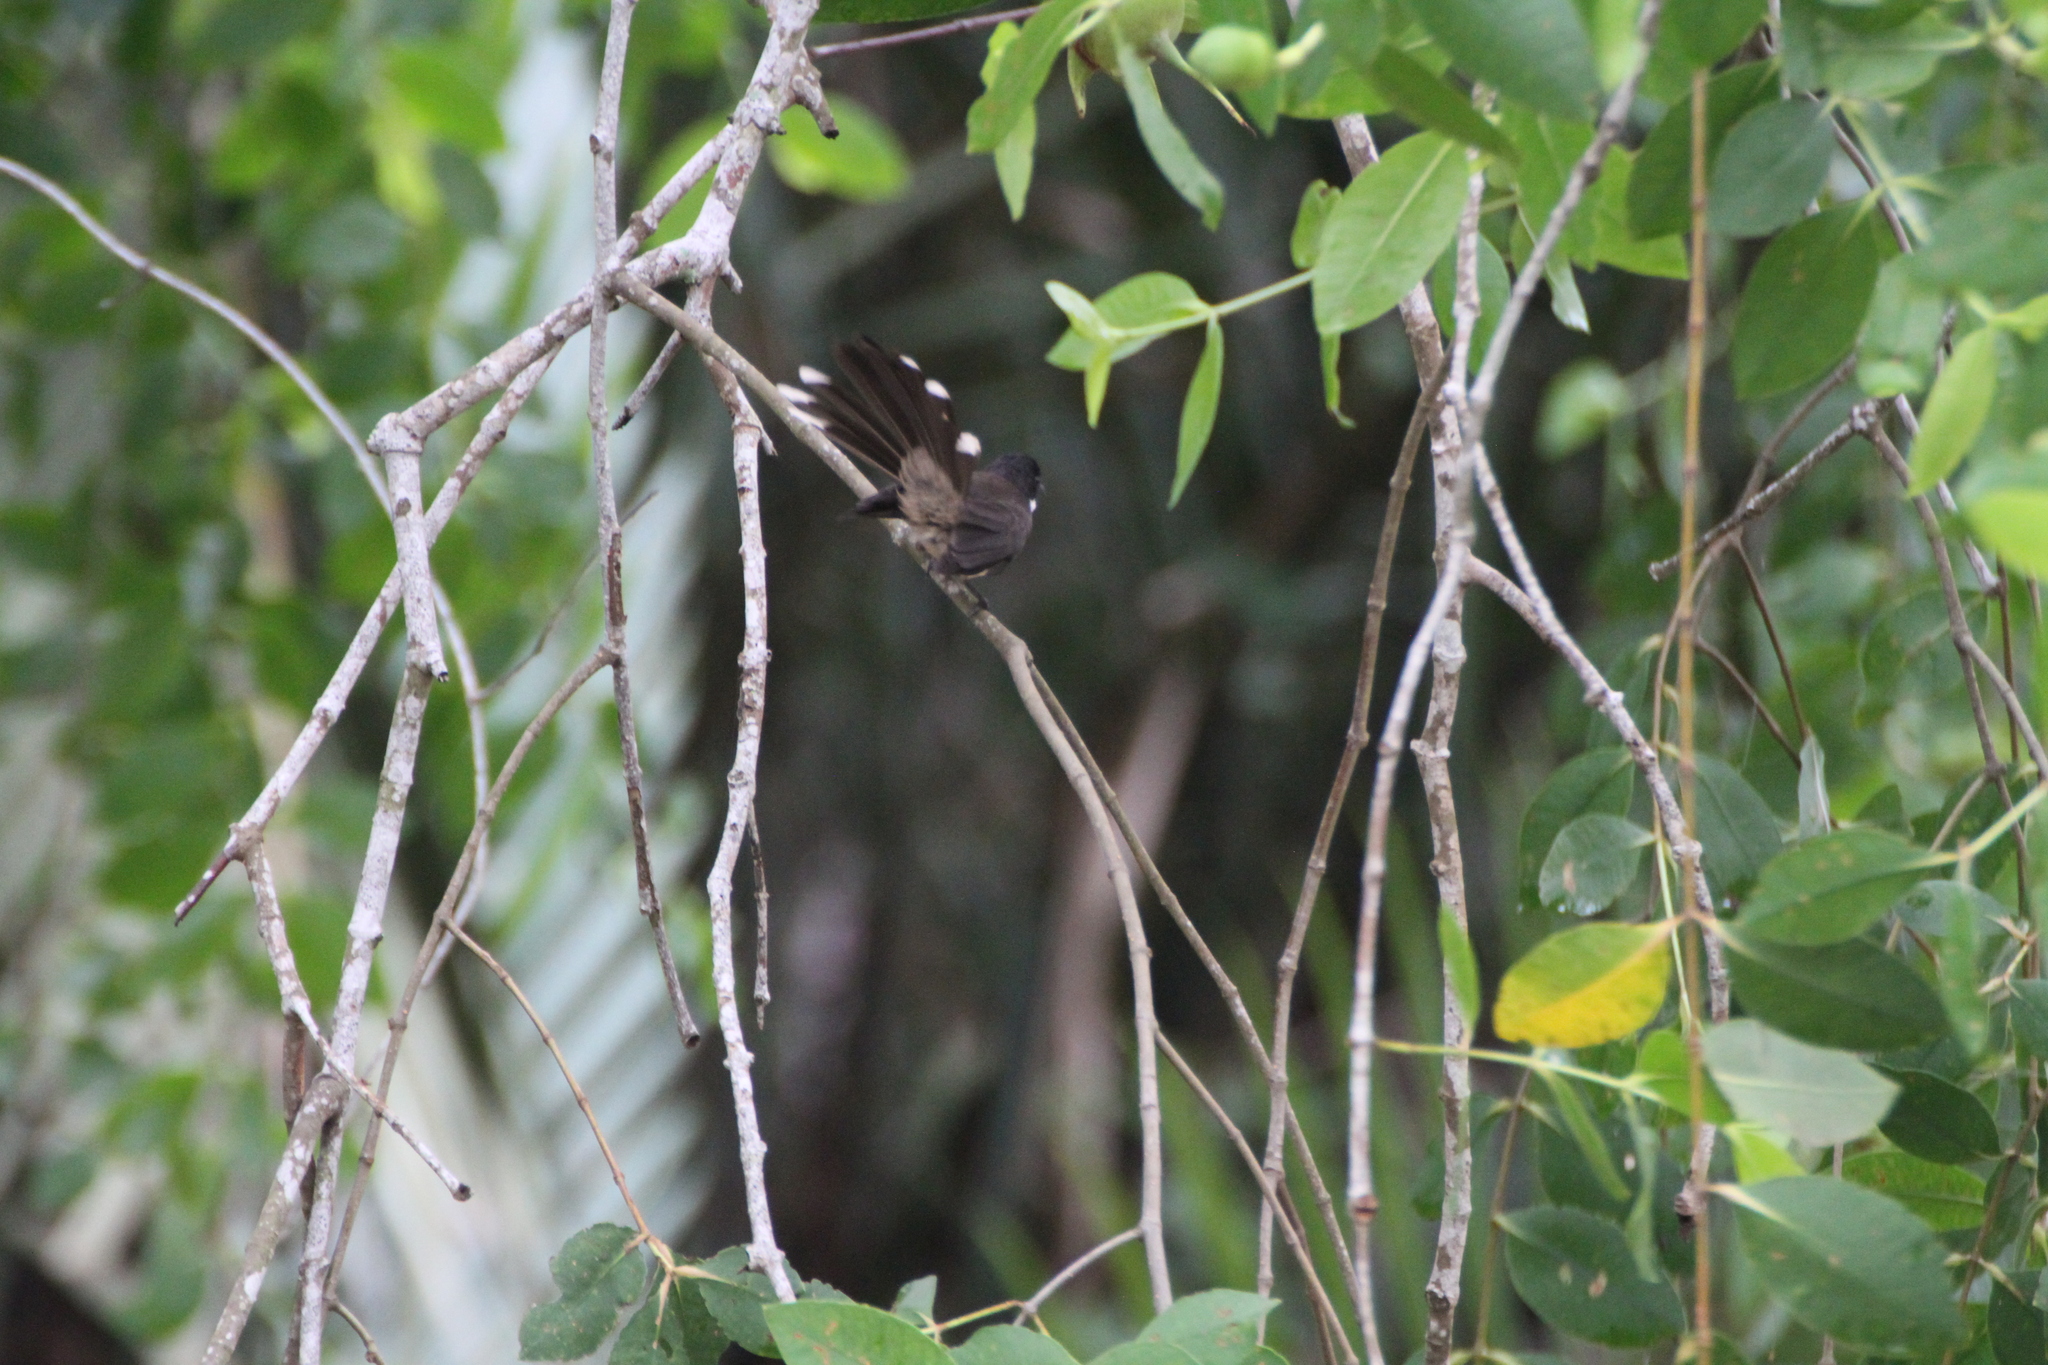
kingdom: Animalia
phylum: Chordata
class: Aves
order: Passeriformes
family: Rhipiduridae
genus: Rhipidura
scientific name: Rhipidura javanica
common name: Pied fantail
